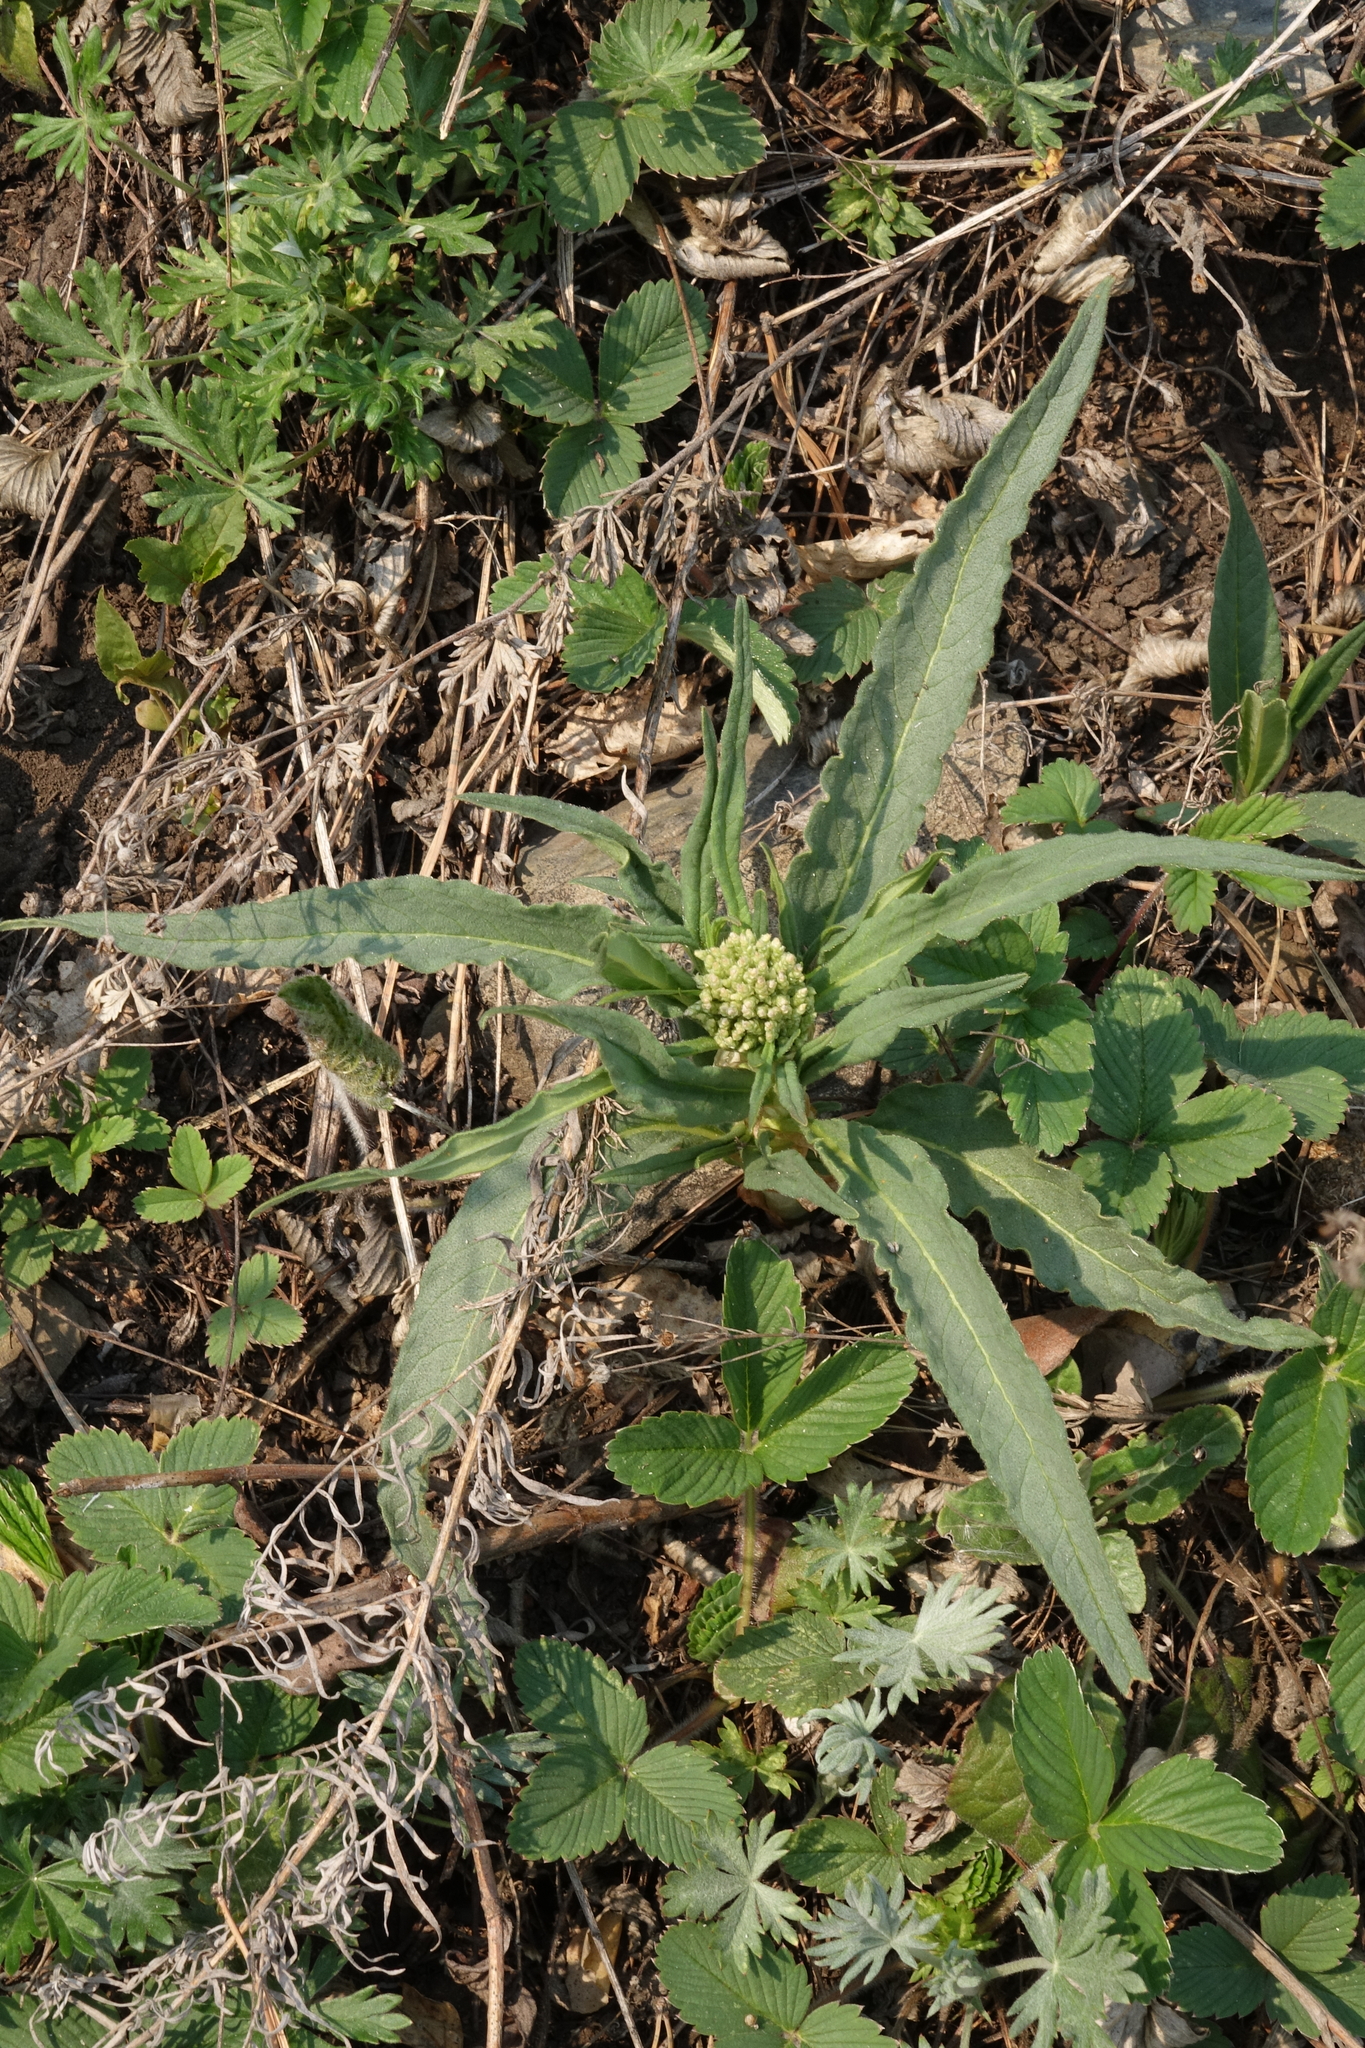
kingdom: Plantae
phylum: Tracheophyta
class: Magnoliopsida
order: Caryophyllales
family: Polygonaceae
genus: Koenigia
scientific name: Koenigia alpina
